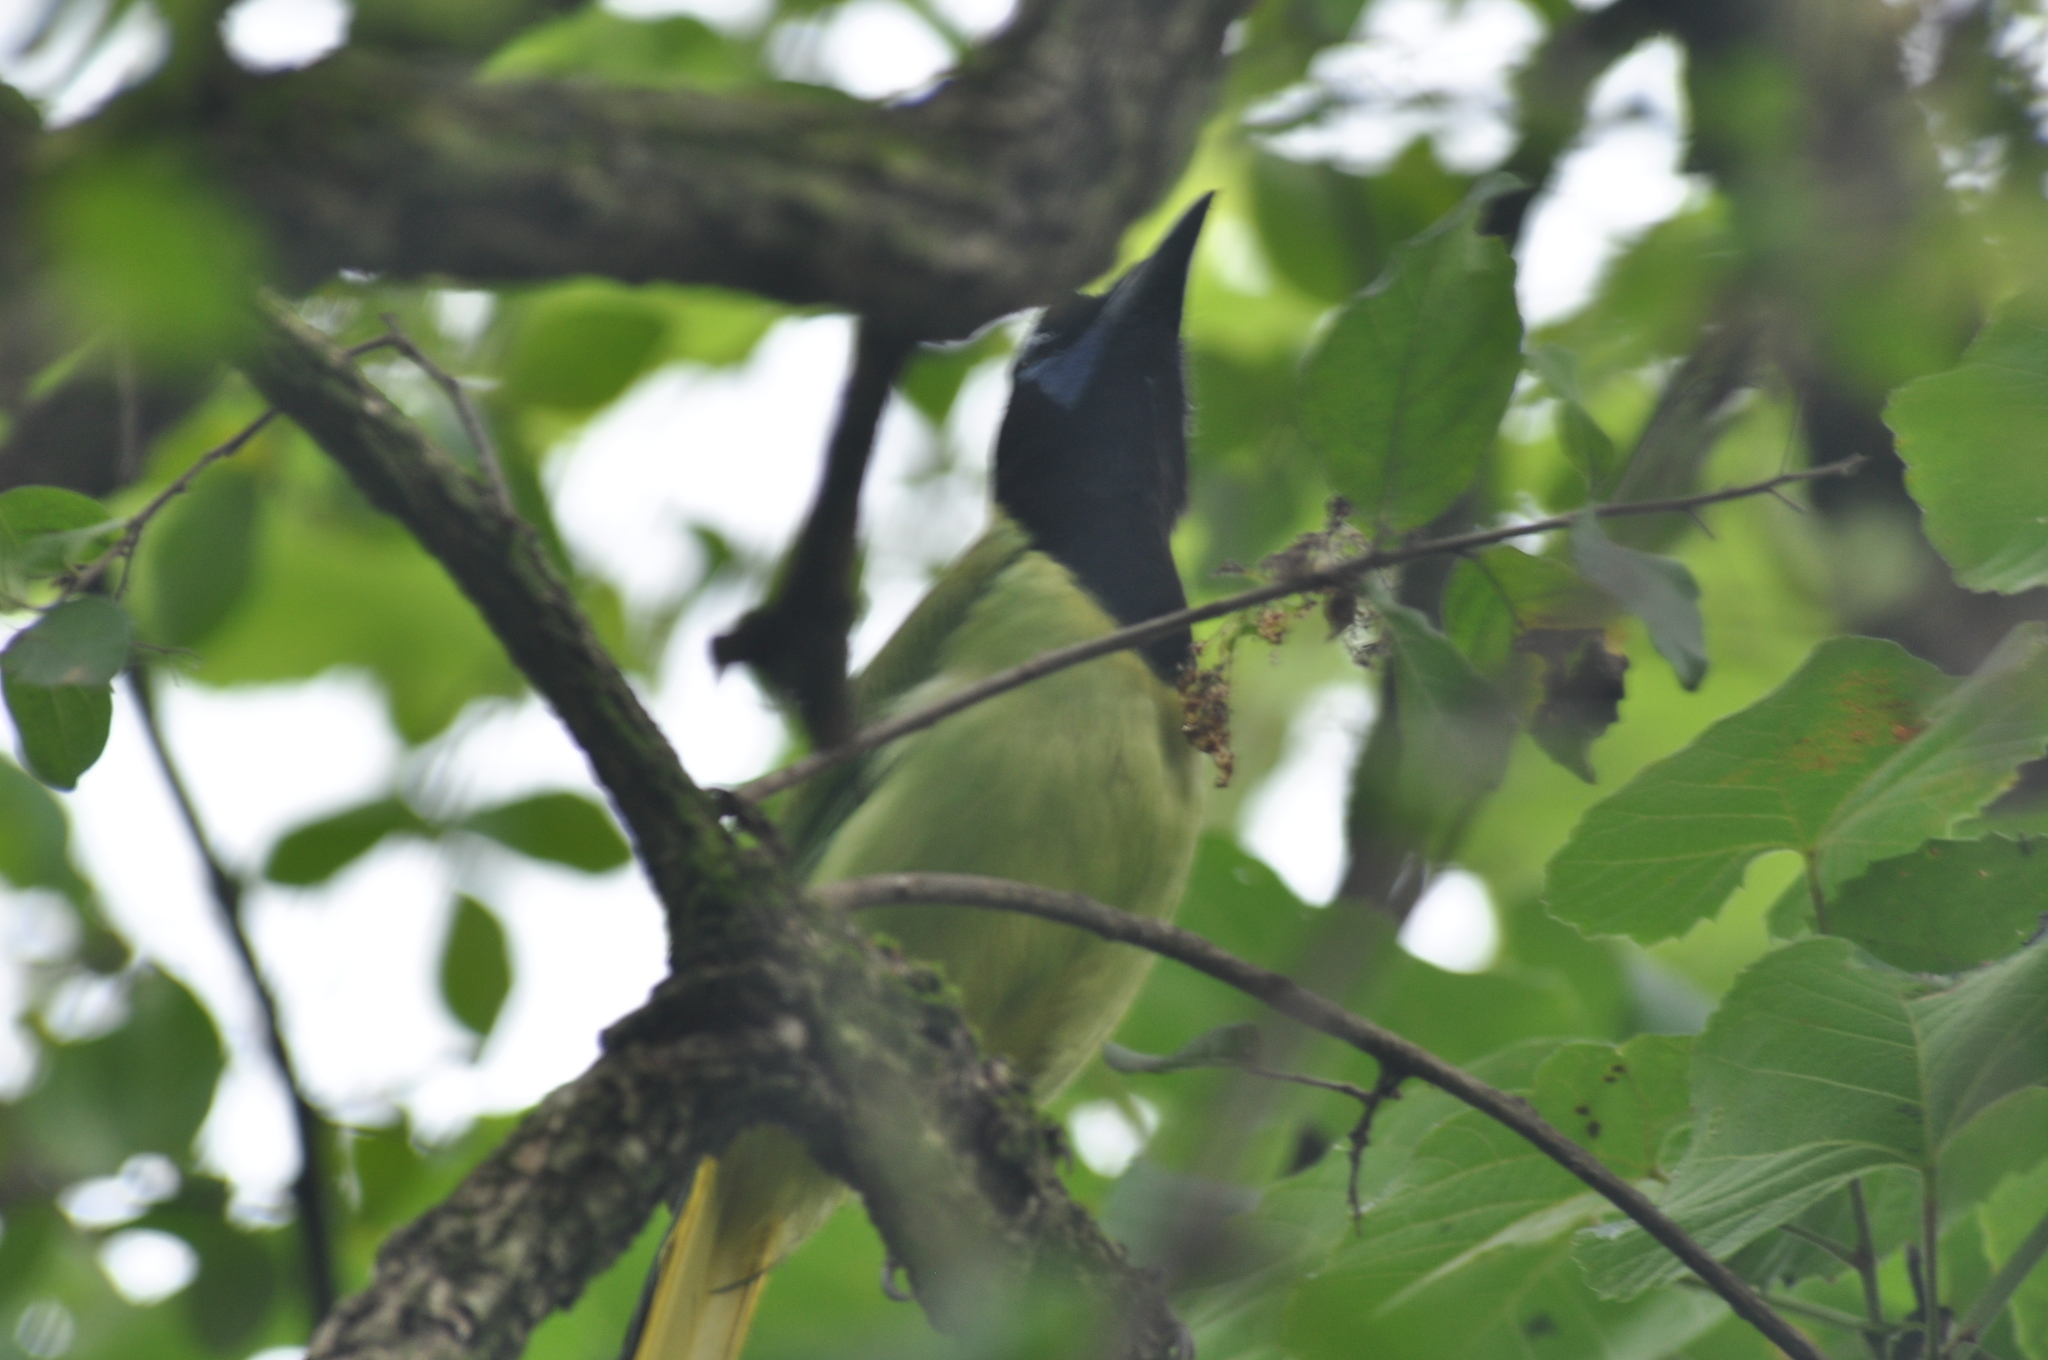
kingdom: Animalia
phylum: Chordata
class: Aves
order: Passeriformes
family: Corvidae
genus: Cyanocorax
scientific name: Cyanocorax yncas
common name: Green jay
